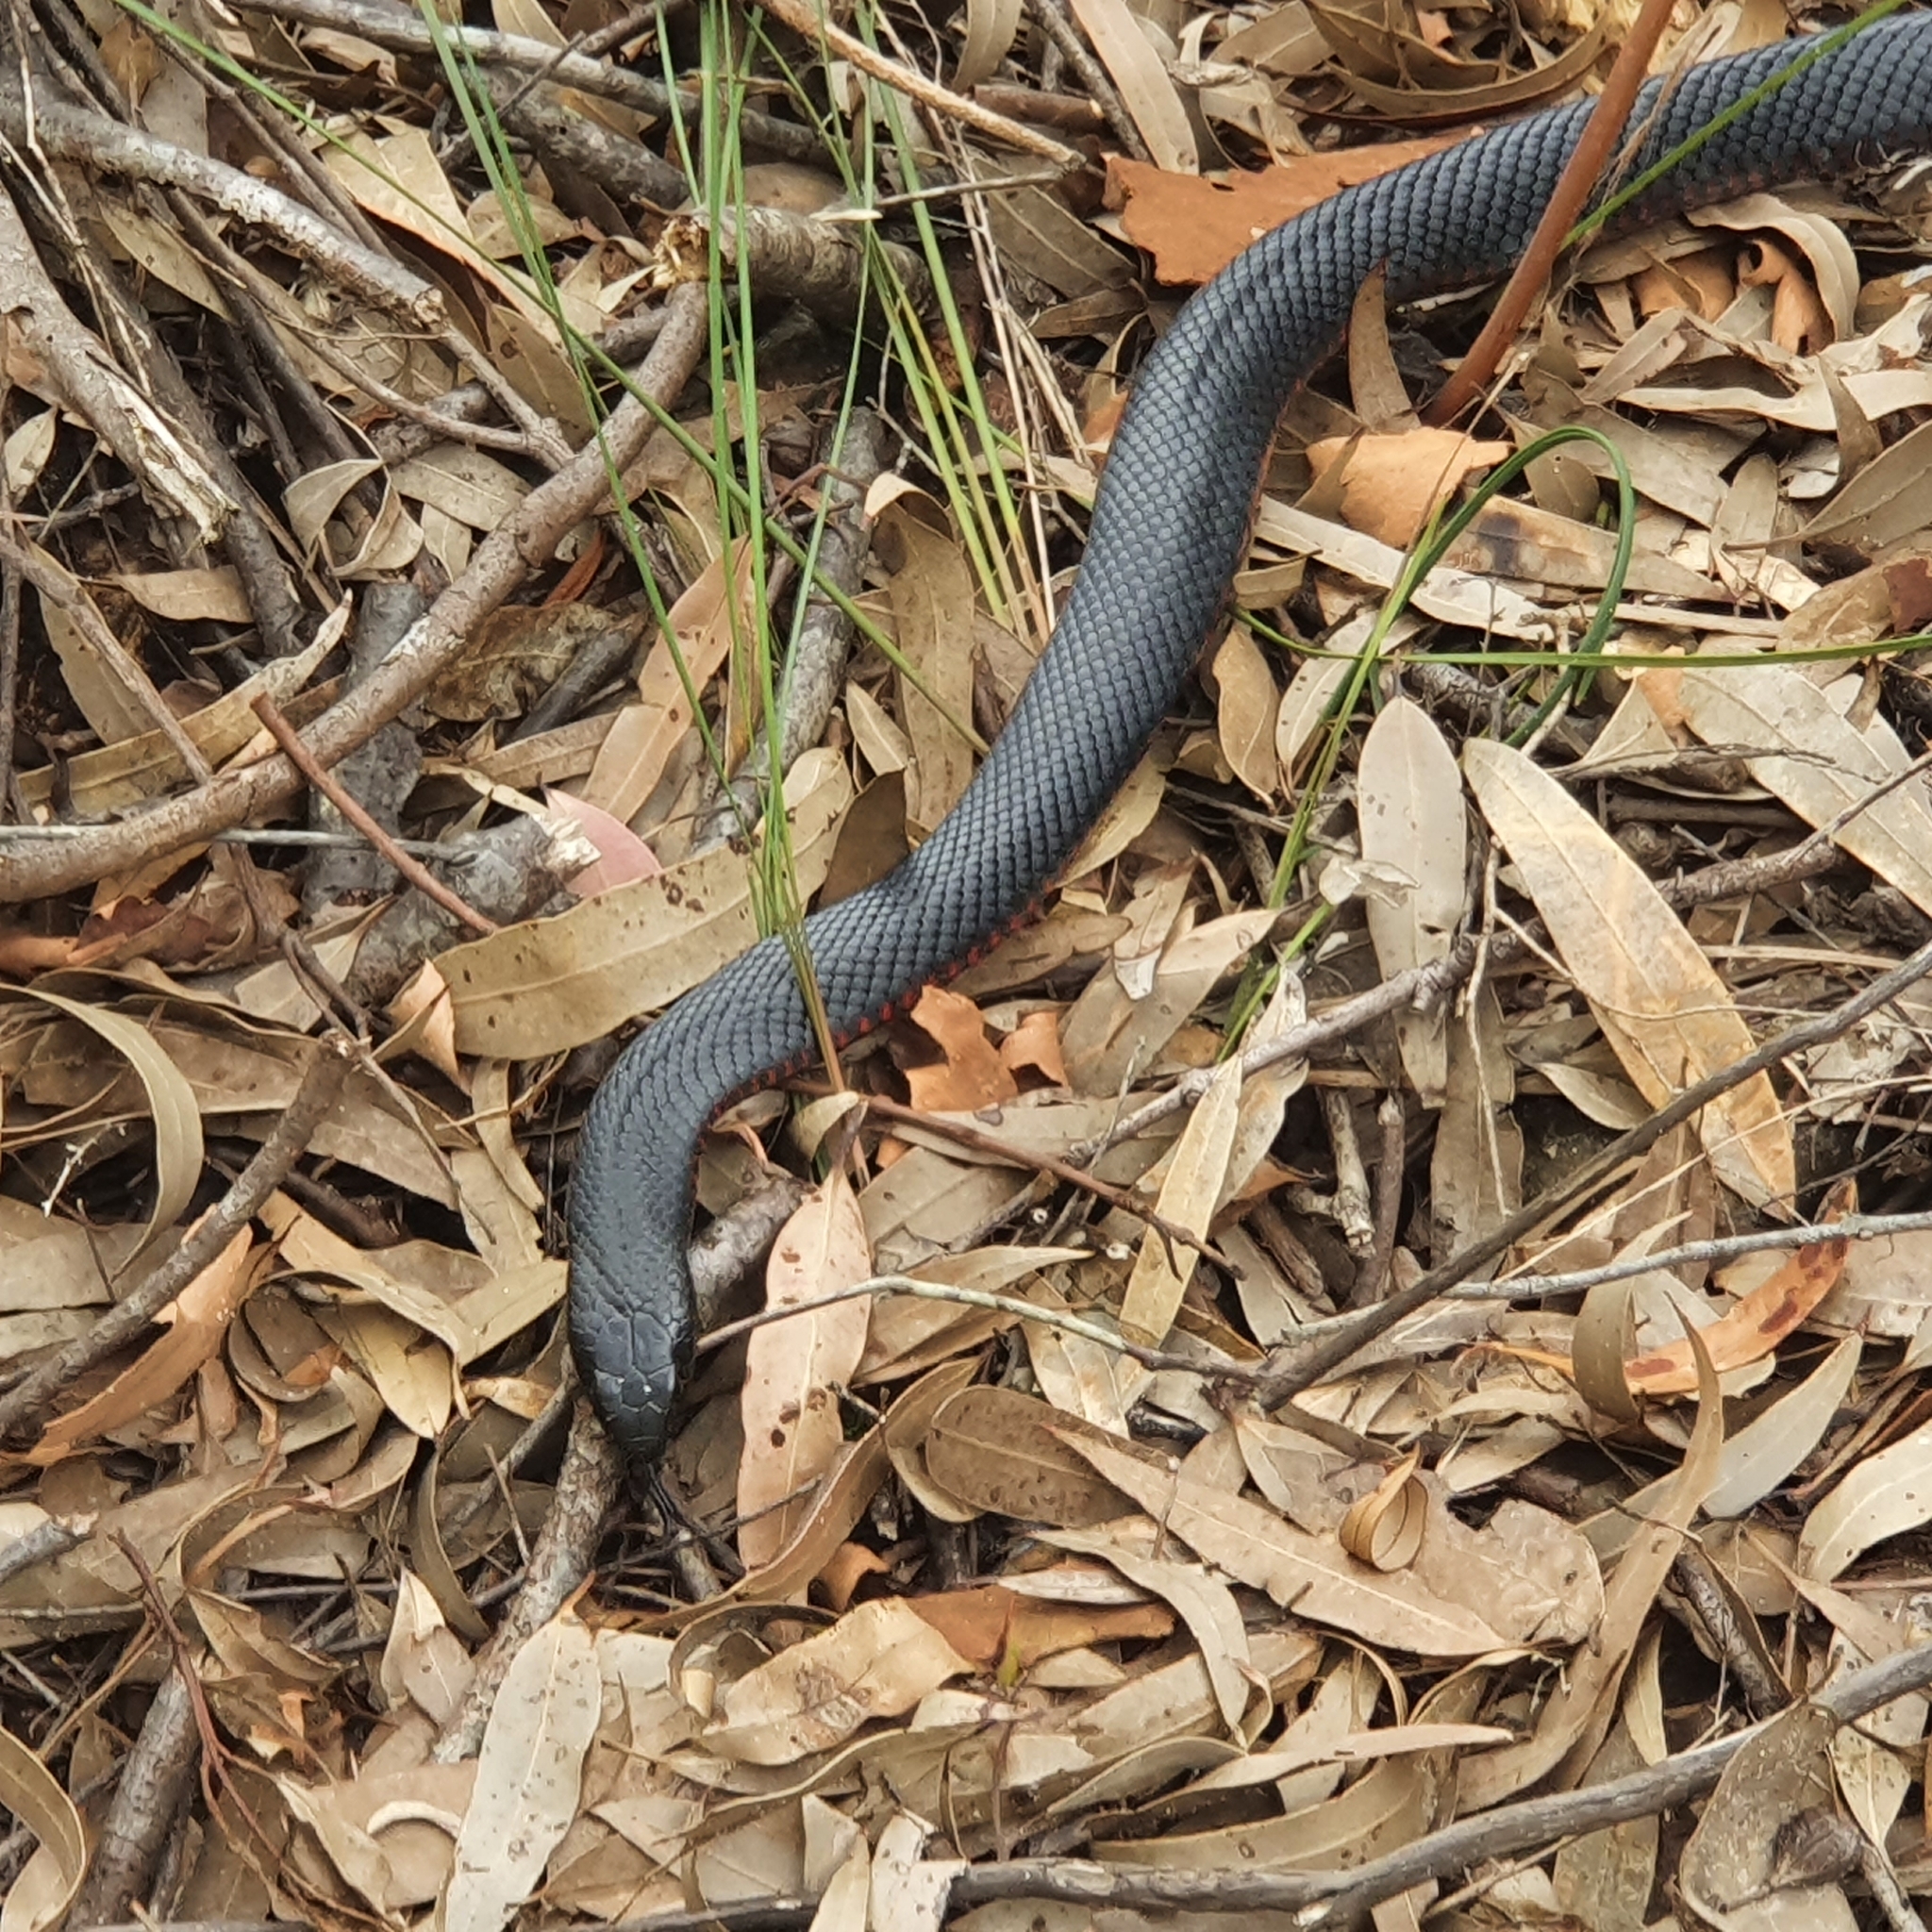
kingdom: Animalia
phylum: Chordata
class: Squamata
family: Elapidae
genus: Pseudechis
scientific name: Pseudechis porphyriacus
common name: Australian black snake
